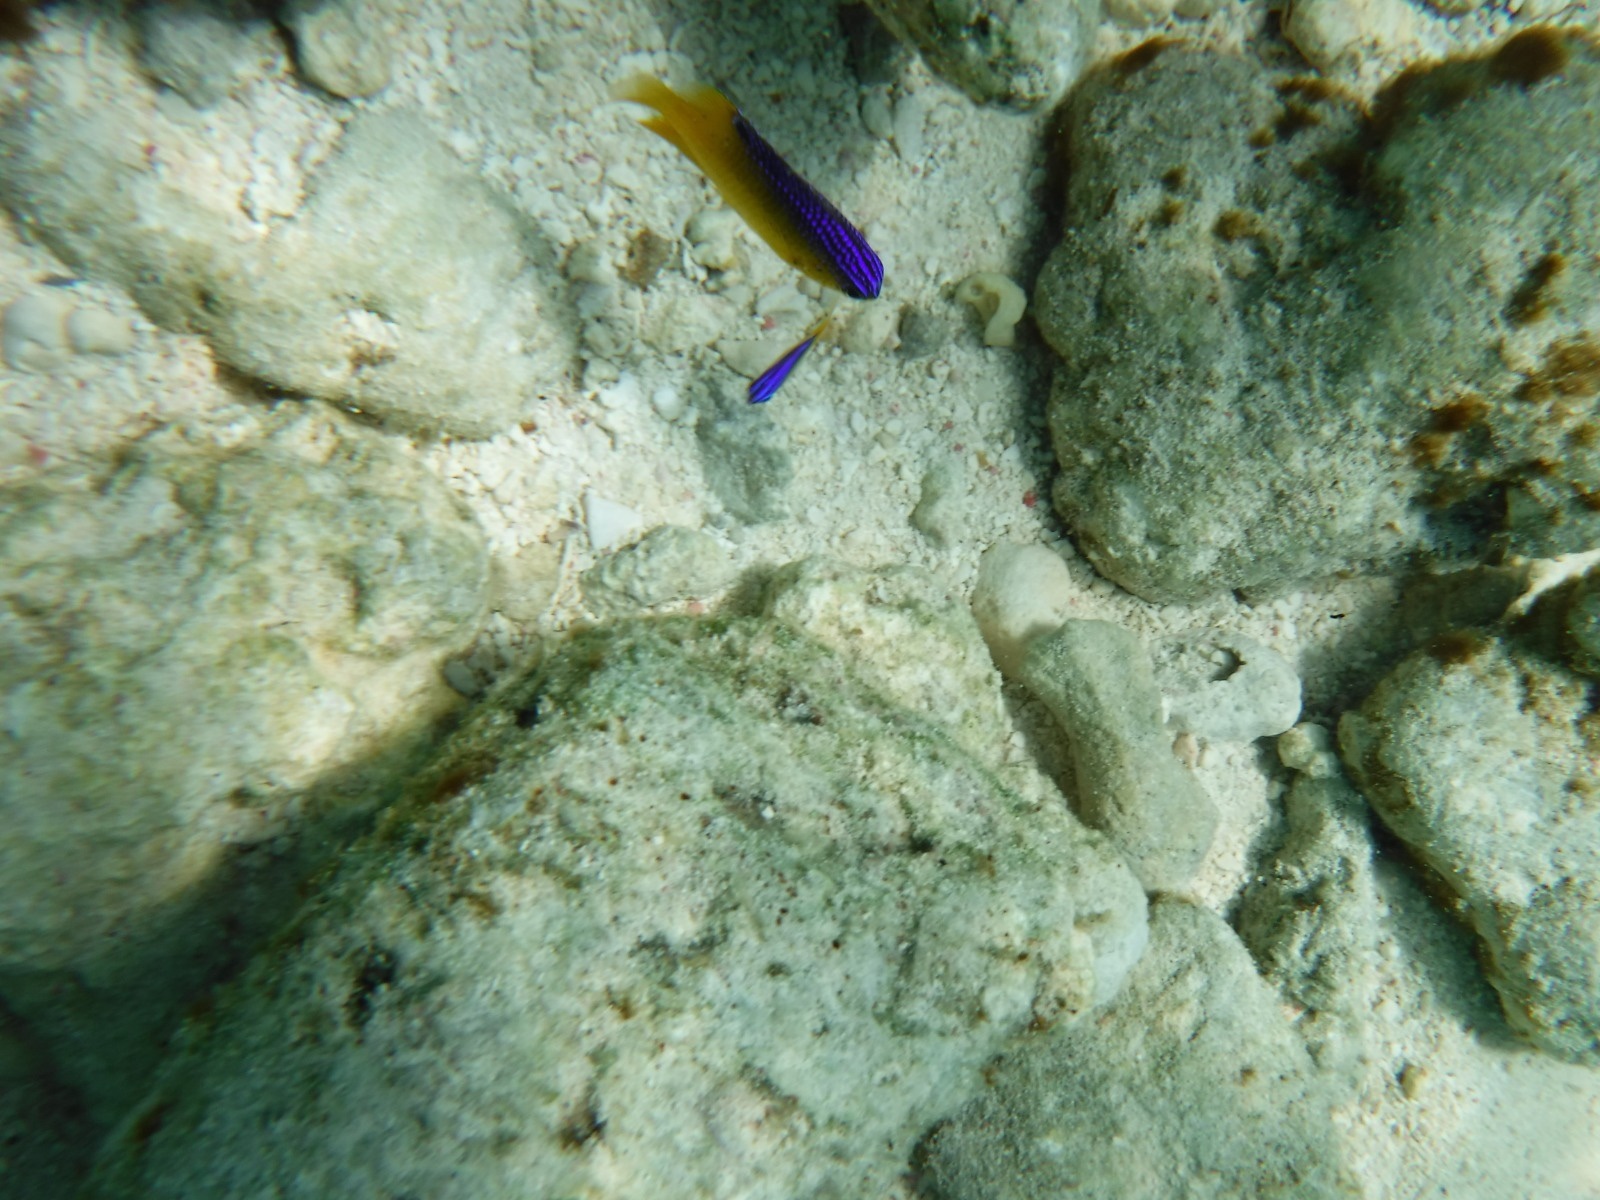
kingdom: Animalia
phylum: Chordata
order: Perciformes
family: Pomacentridae
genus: Stegastes
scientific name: Stegastes leucostictus
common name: Beaugregory
